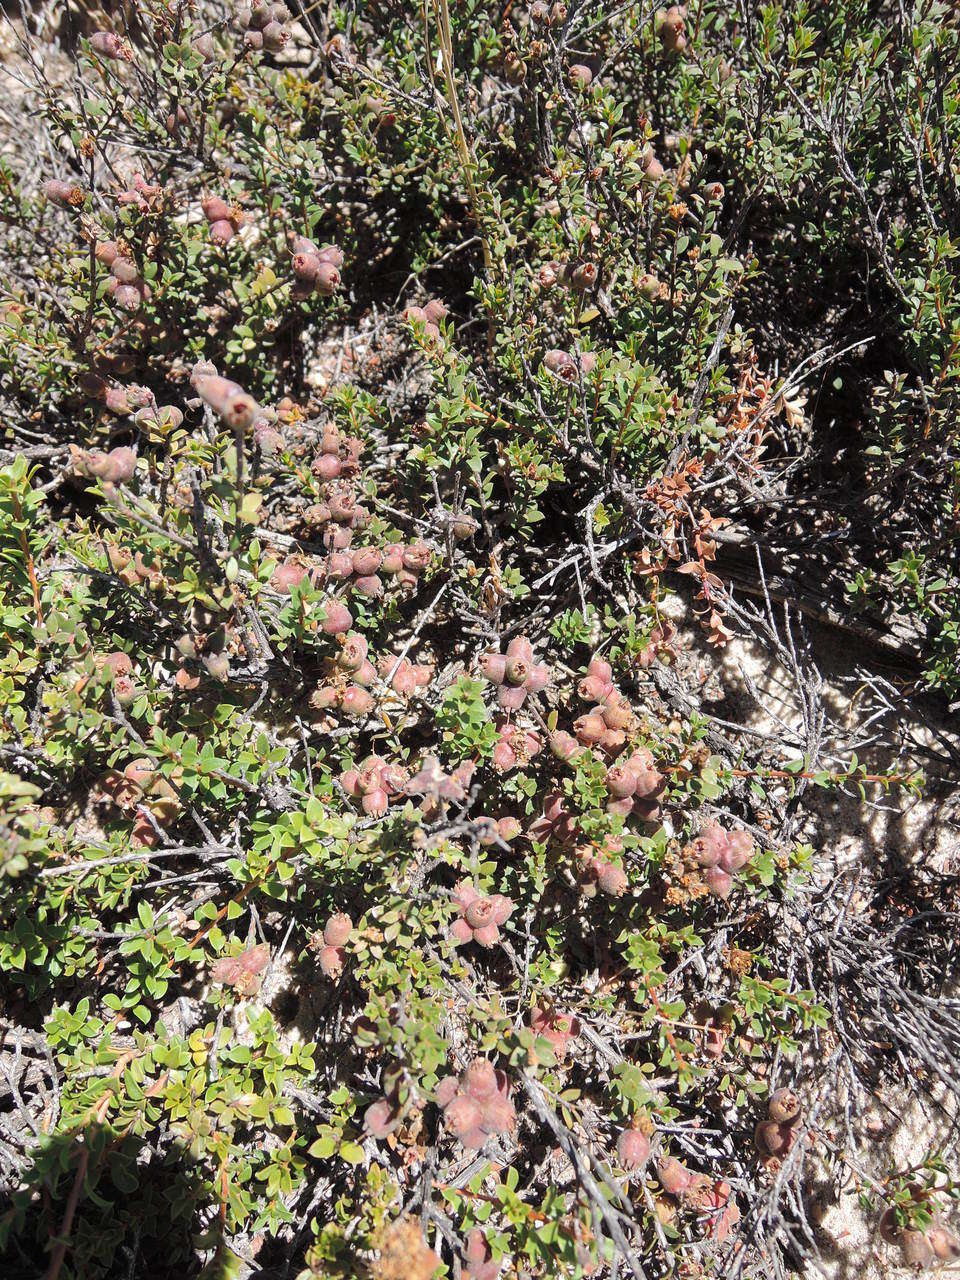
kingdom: Plantae
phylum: Tracheophyta
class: Magnoliopsida
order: Myrtales
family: Myrtaceae
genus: Kunzea
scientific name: Kunzea pomifera
